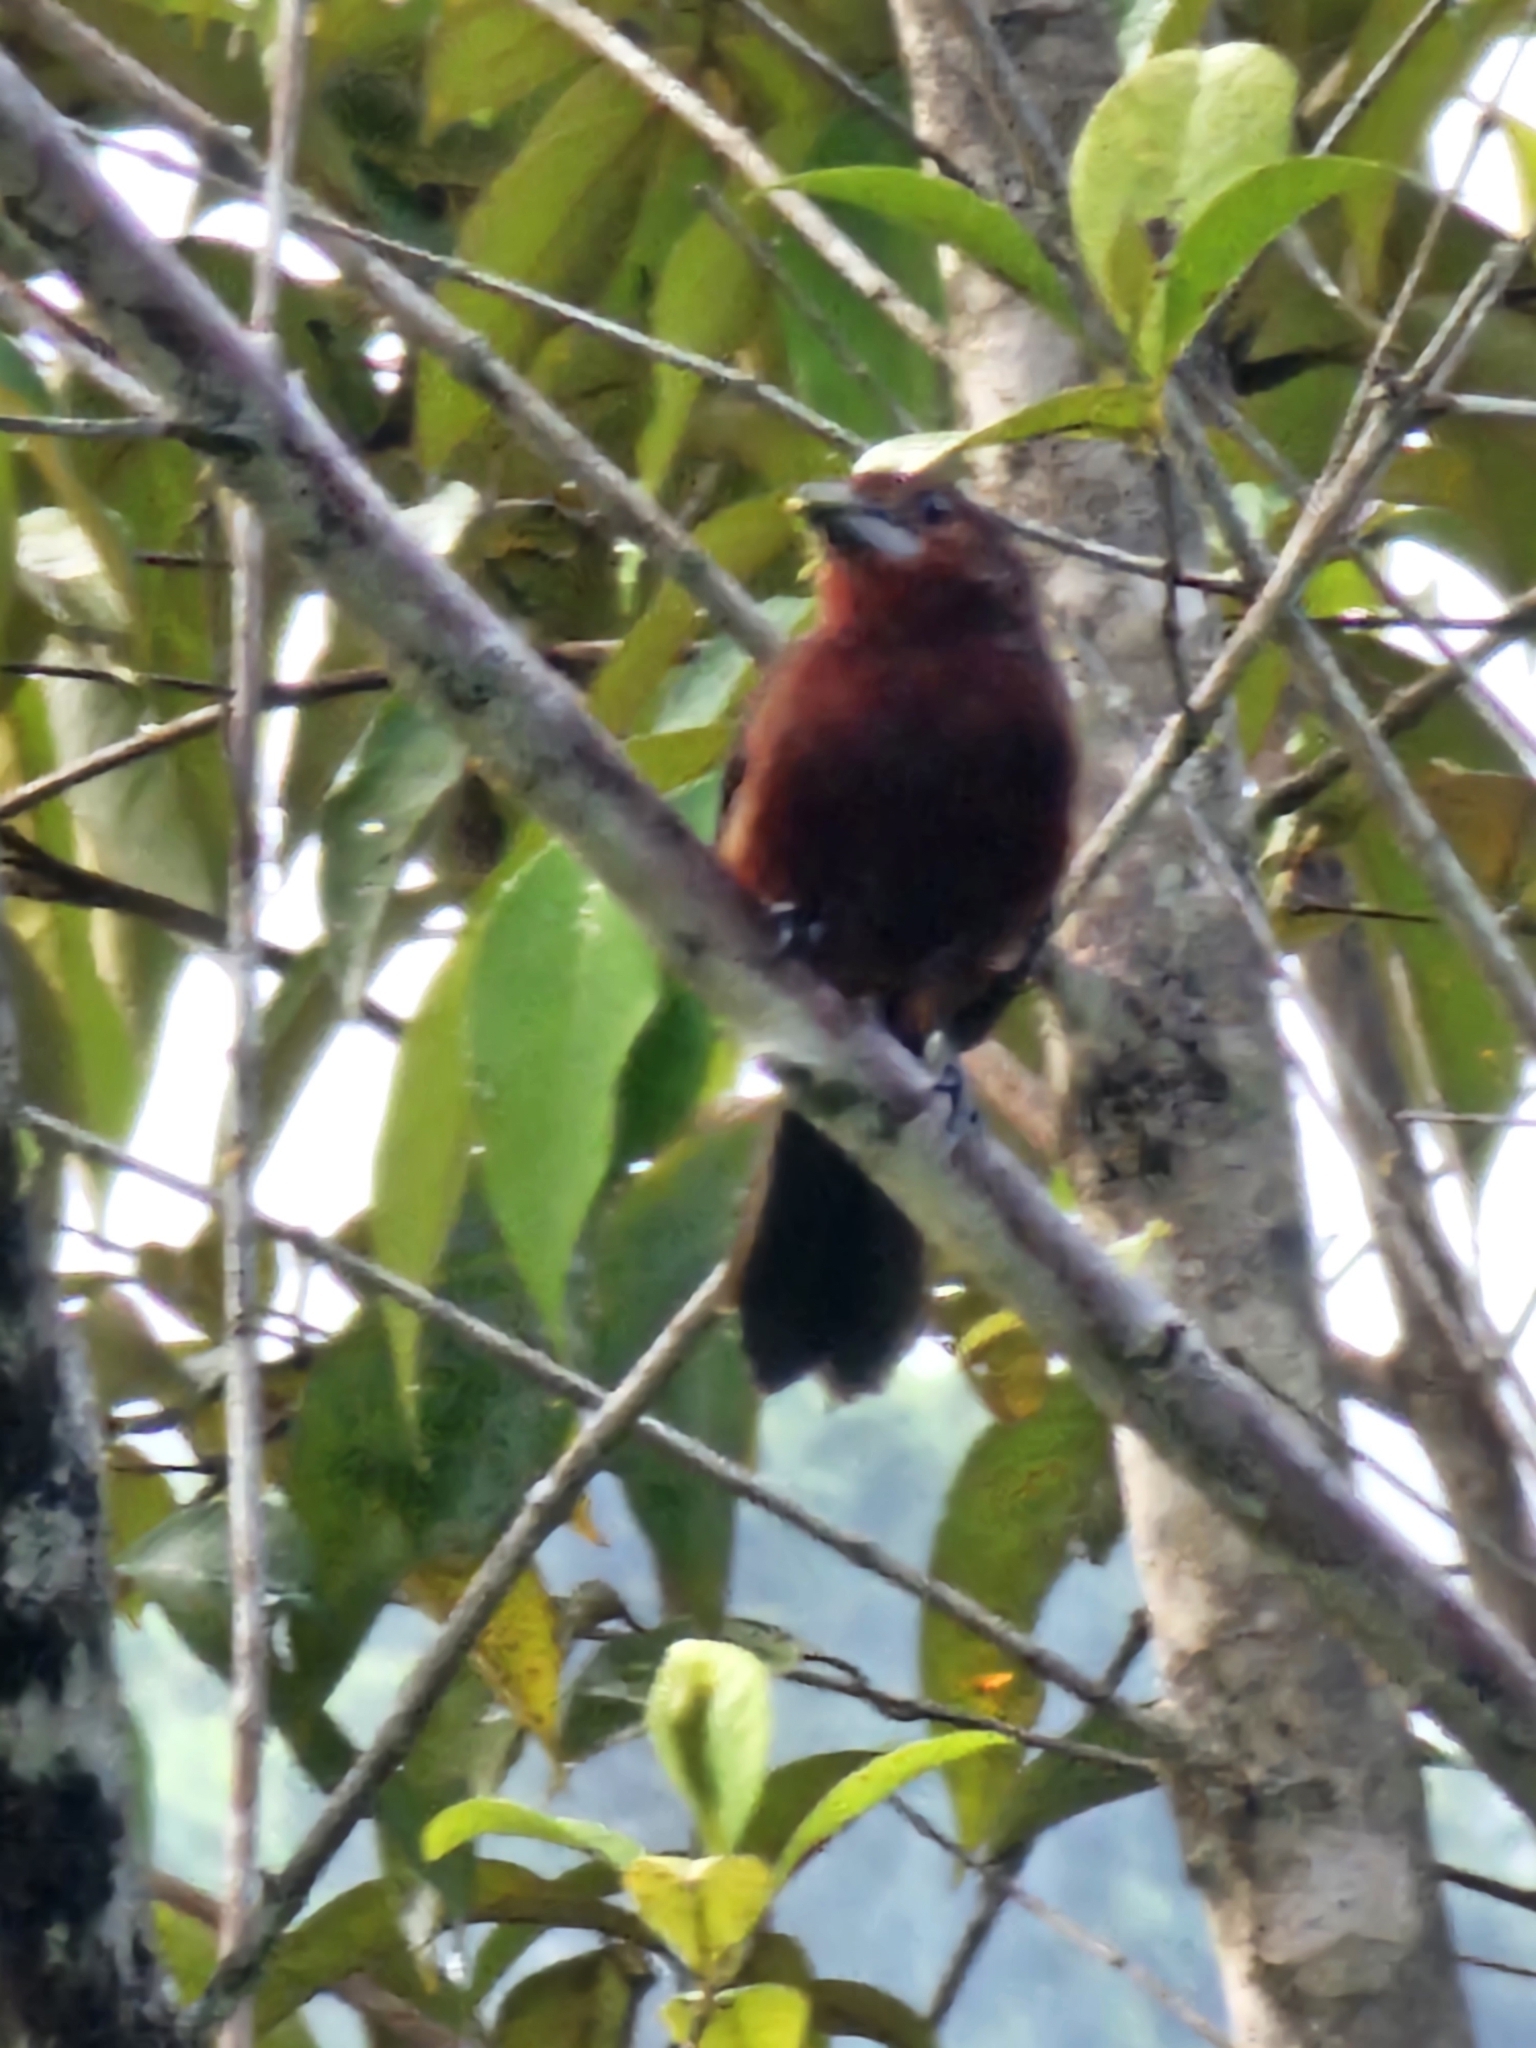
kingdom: Animalia
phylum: Chordata
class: Aves
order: Passeriformes
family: Thraupidae
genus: Ramphocelus
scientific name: Ramphocelus carbo
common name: Silver-beaked tanager
